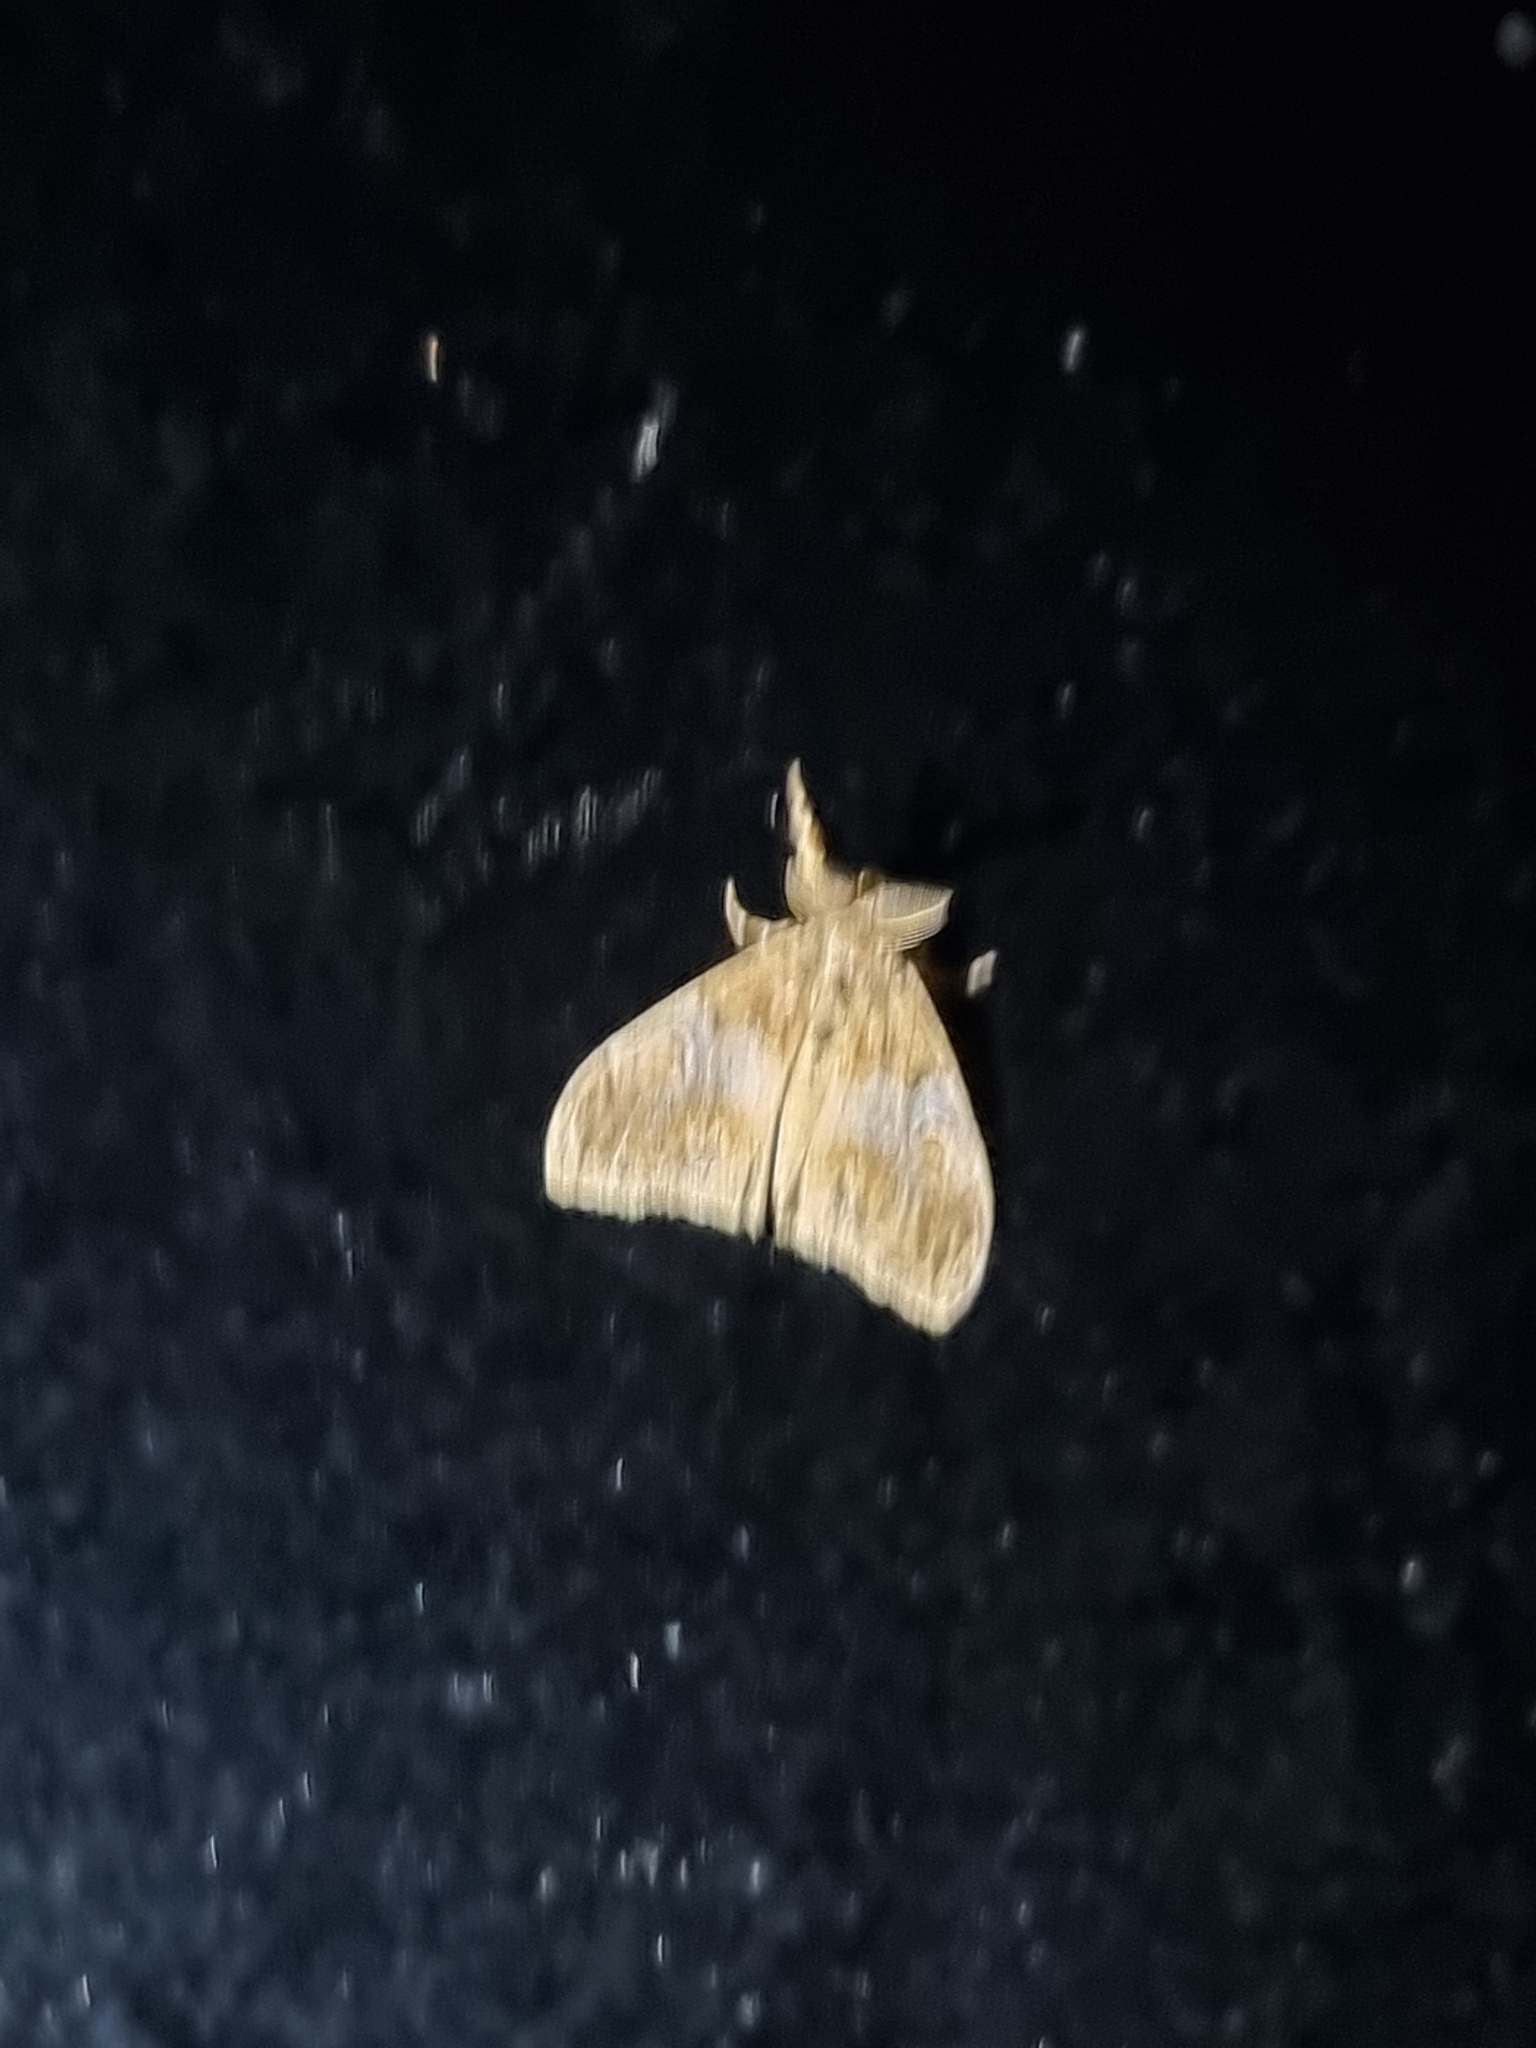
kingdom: Animalia
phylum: Arthropoda
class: Insecta
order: Lepidoptera
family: Erebidae
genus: Orgyia
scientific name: Orgyia australis
